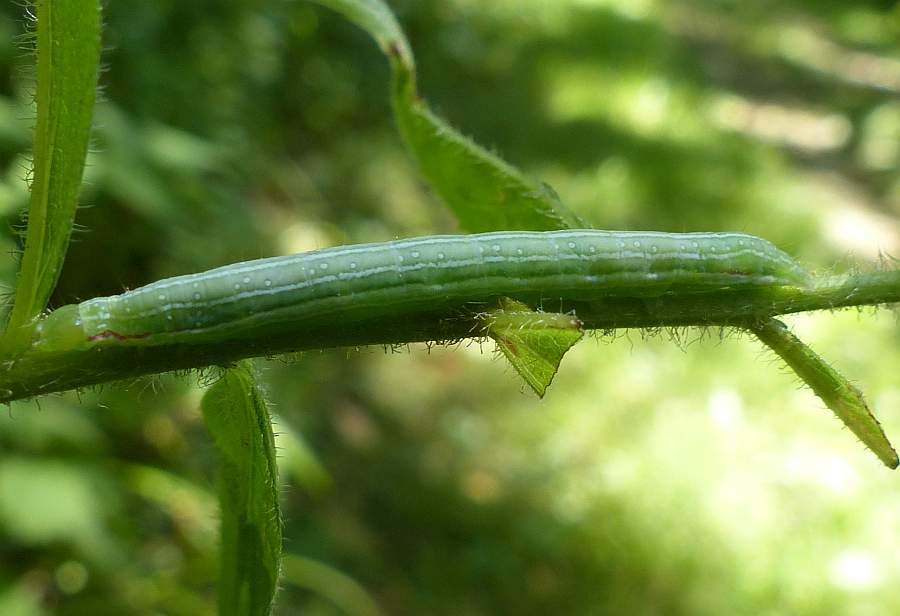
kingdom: Animalia
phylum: Arthropoda
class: Insecta
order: Lepidoptera
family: Noctuidae
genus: Leuconycta
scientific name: Leuconycta diphteroides
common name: Green leuconycta moth
